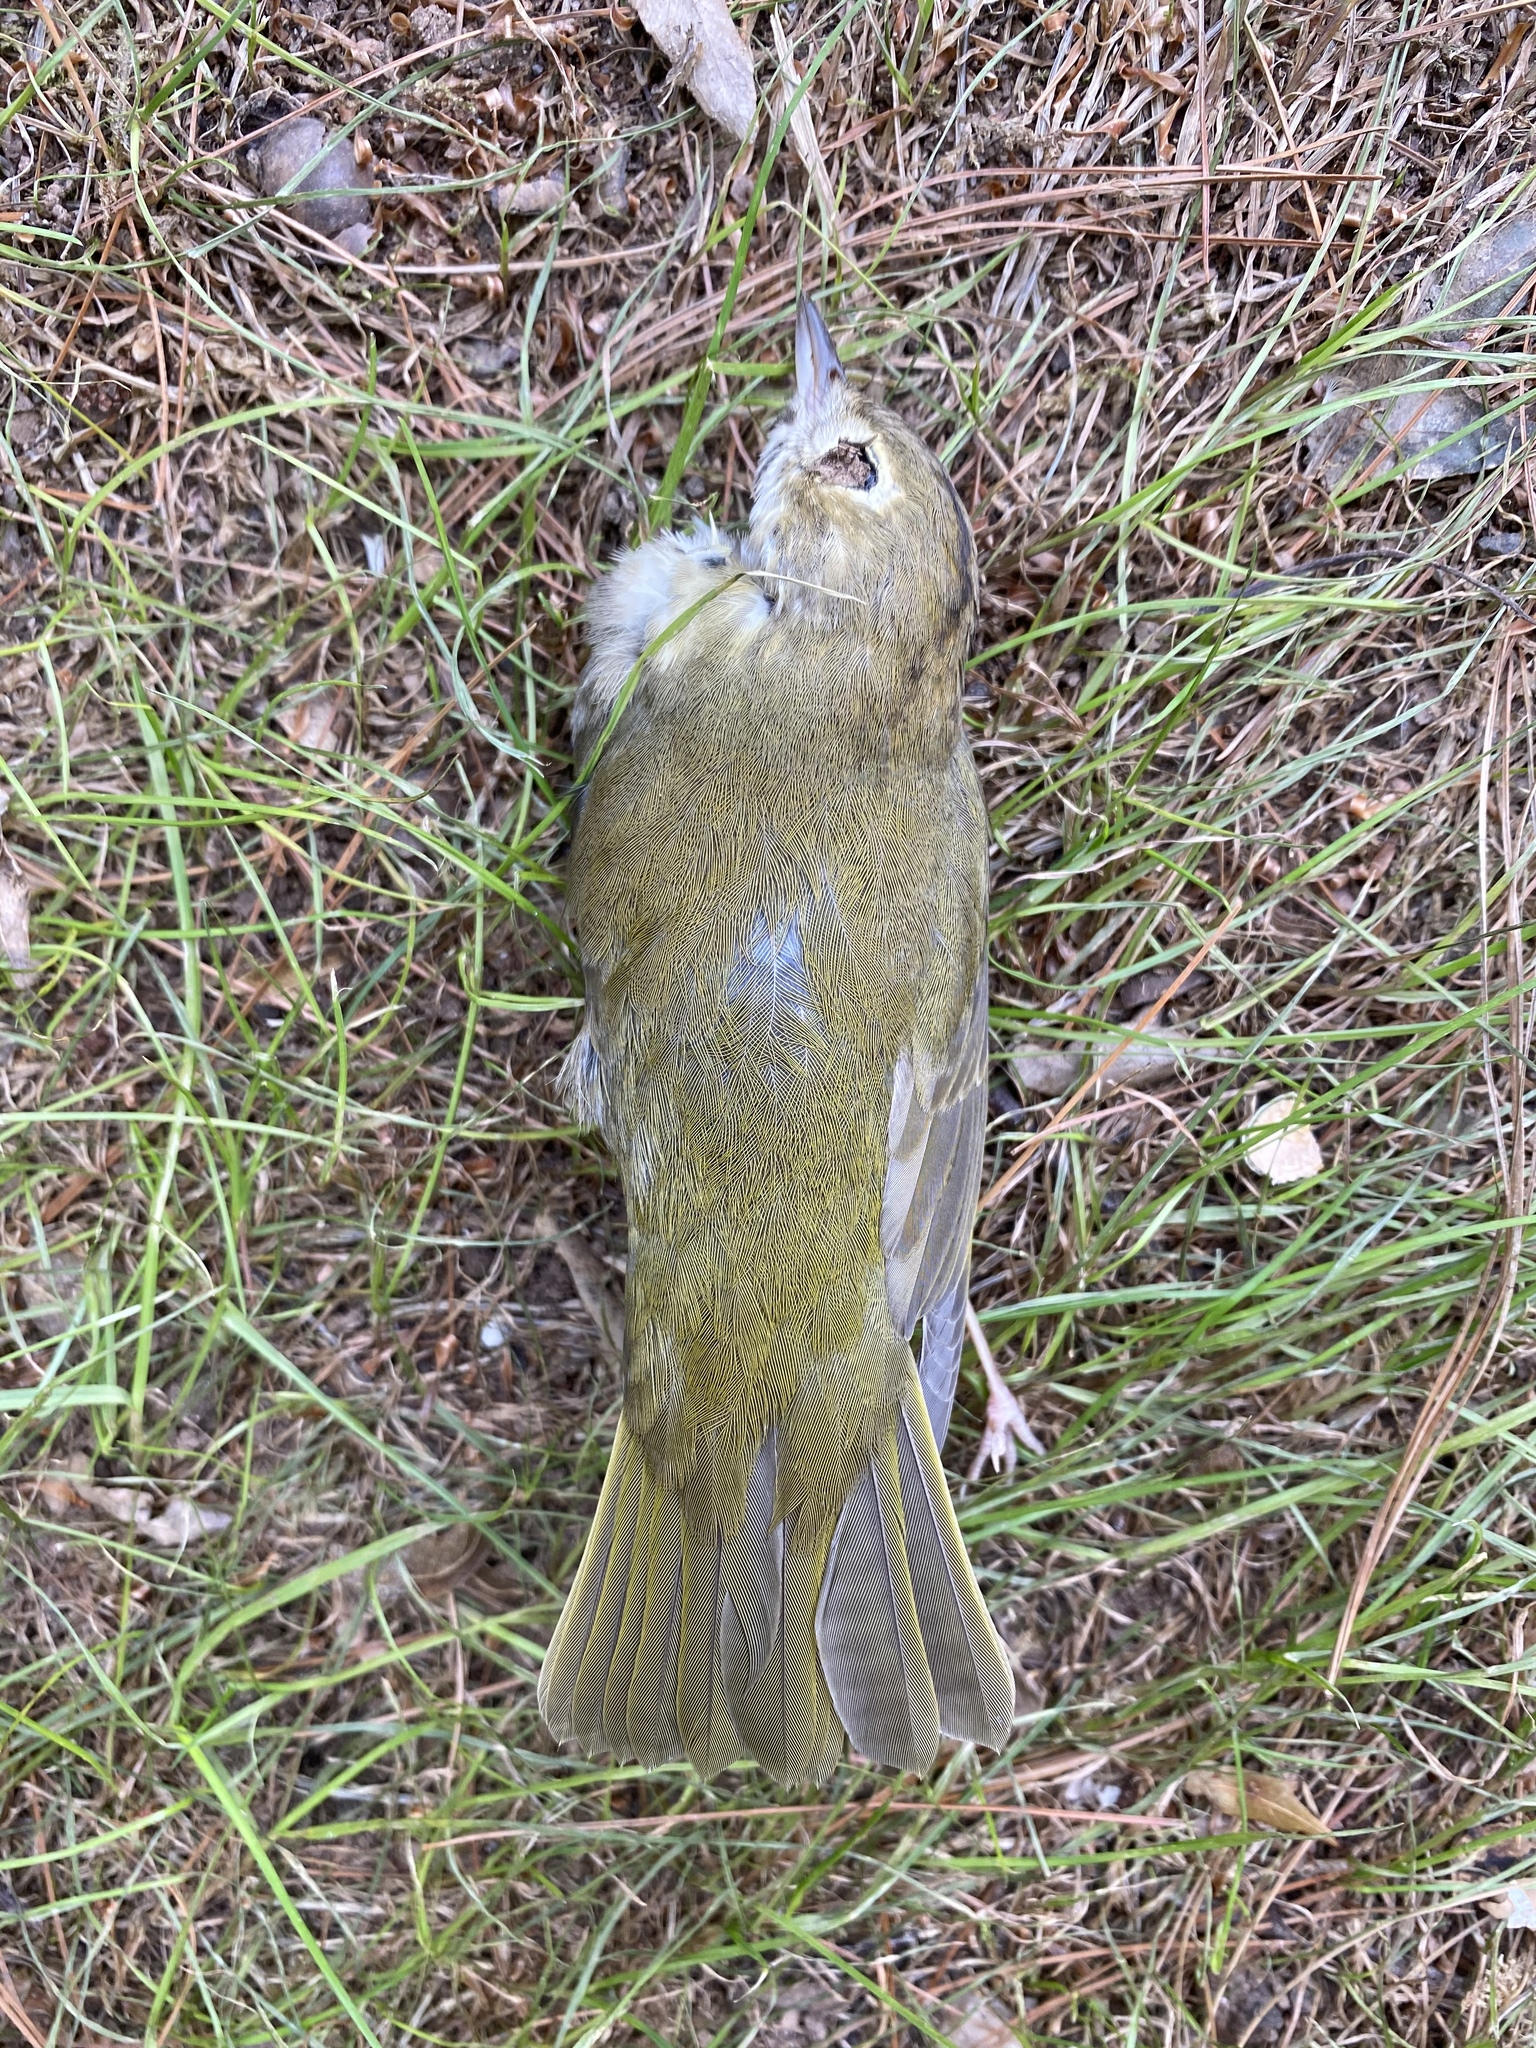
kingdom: Animalia
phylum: Chordata
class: Aves
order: Passeriformes
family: Parulidae
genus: Seiurus
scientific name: Seiurus aurocapilla
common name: Ovenbird
